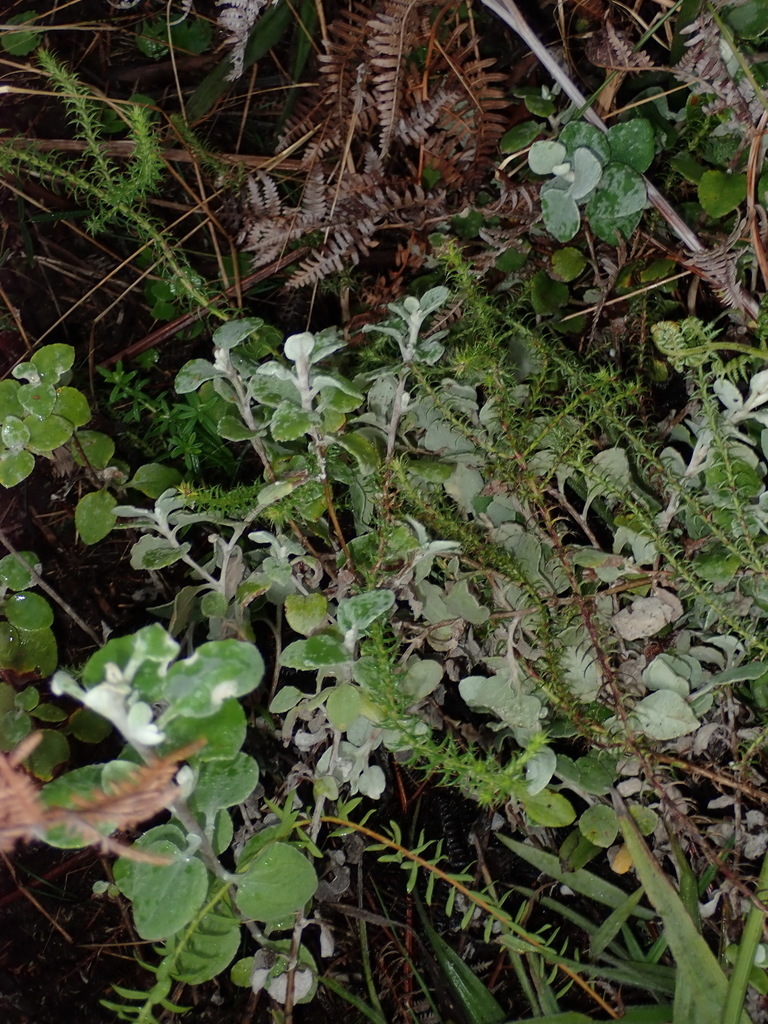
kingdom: Plantae
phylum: Tracheophyta
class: Magnoliopsida
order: Asterales
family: Asteraceae
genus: Helichrysum
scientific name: Helichrysum petiolare
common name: Licorice-plant
